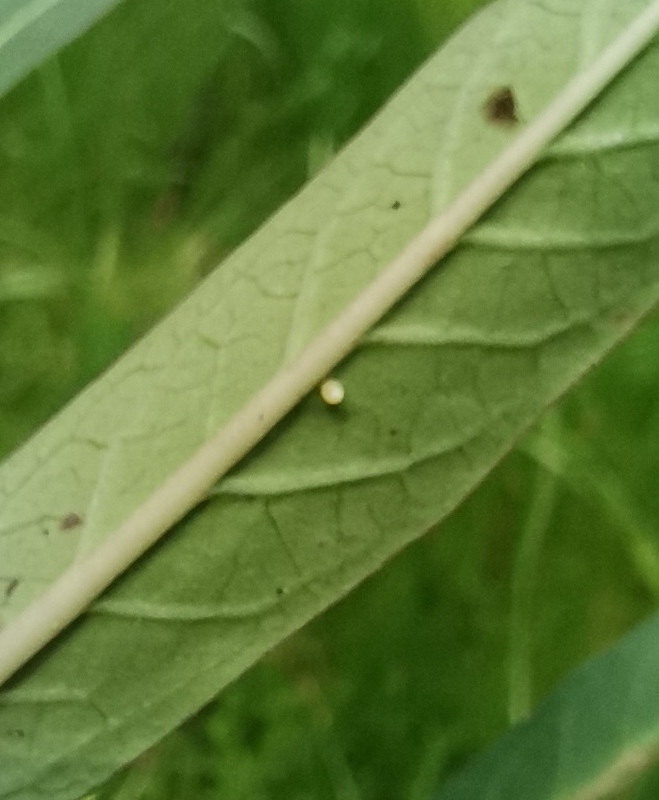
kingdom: Animalia
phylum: Arthropoda
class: Insecta
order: Lepidoptera
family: Nymphalidae
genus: Danaus
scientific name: Danaus plexippus
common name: Monarch
